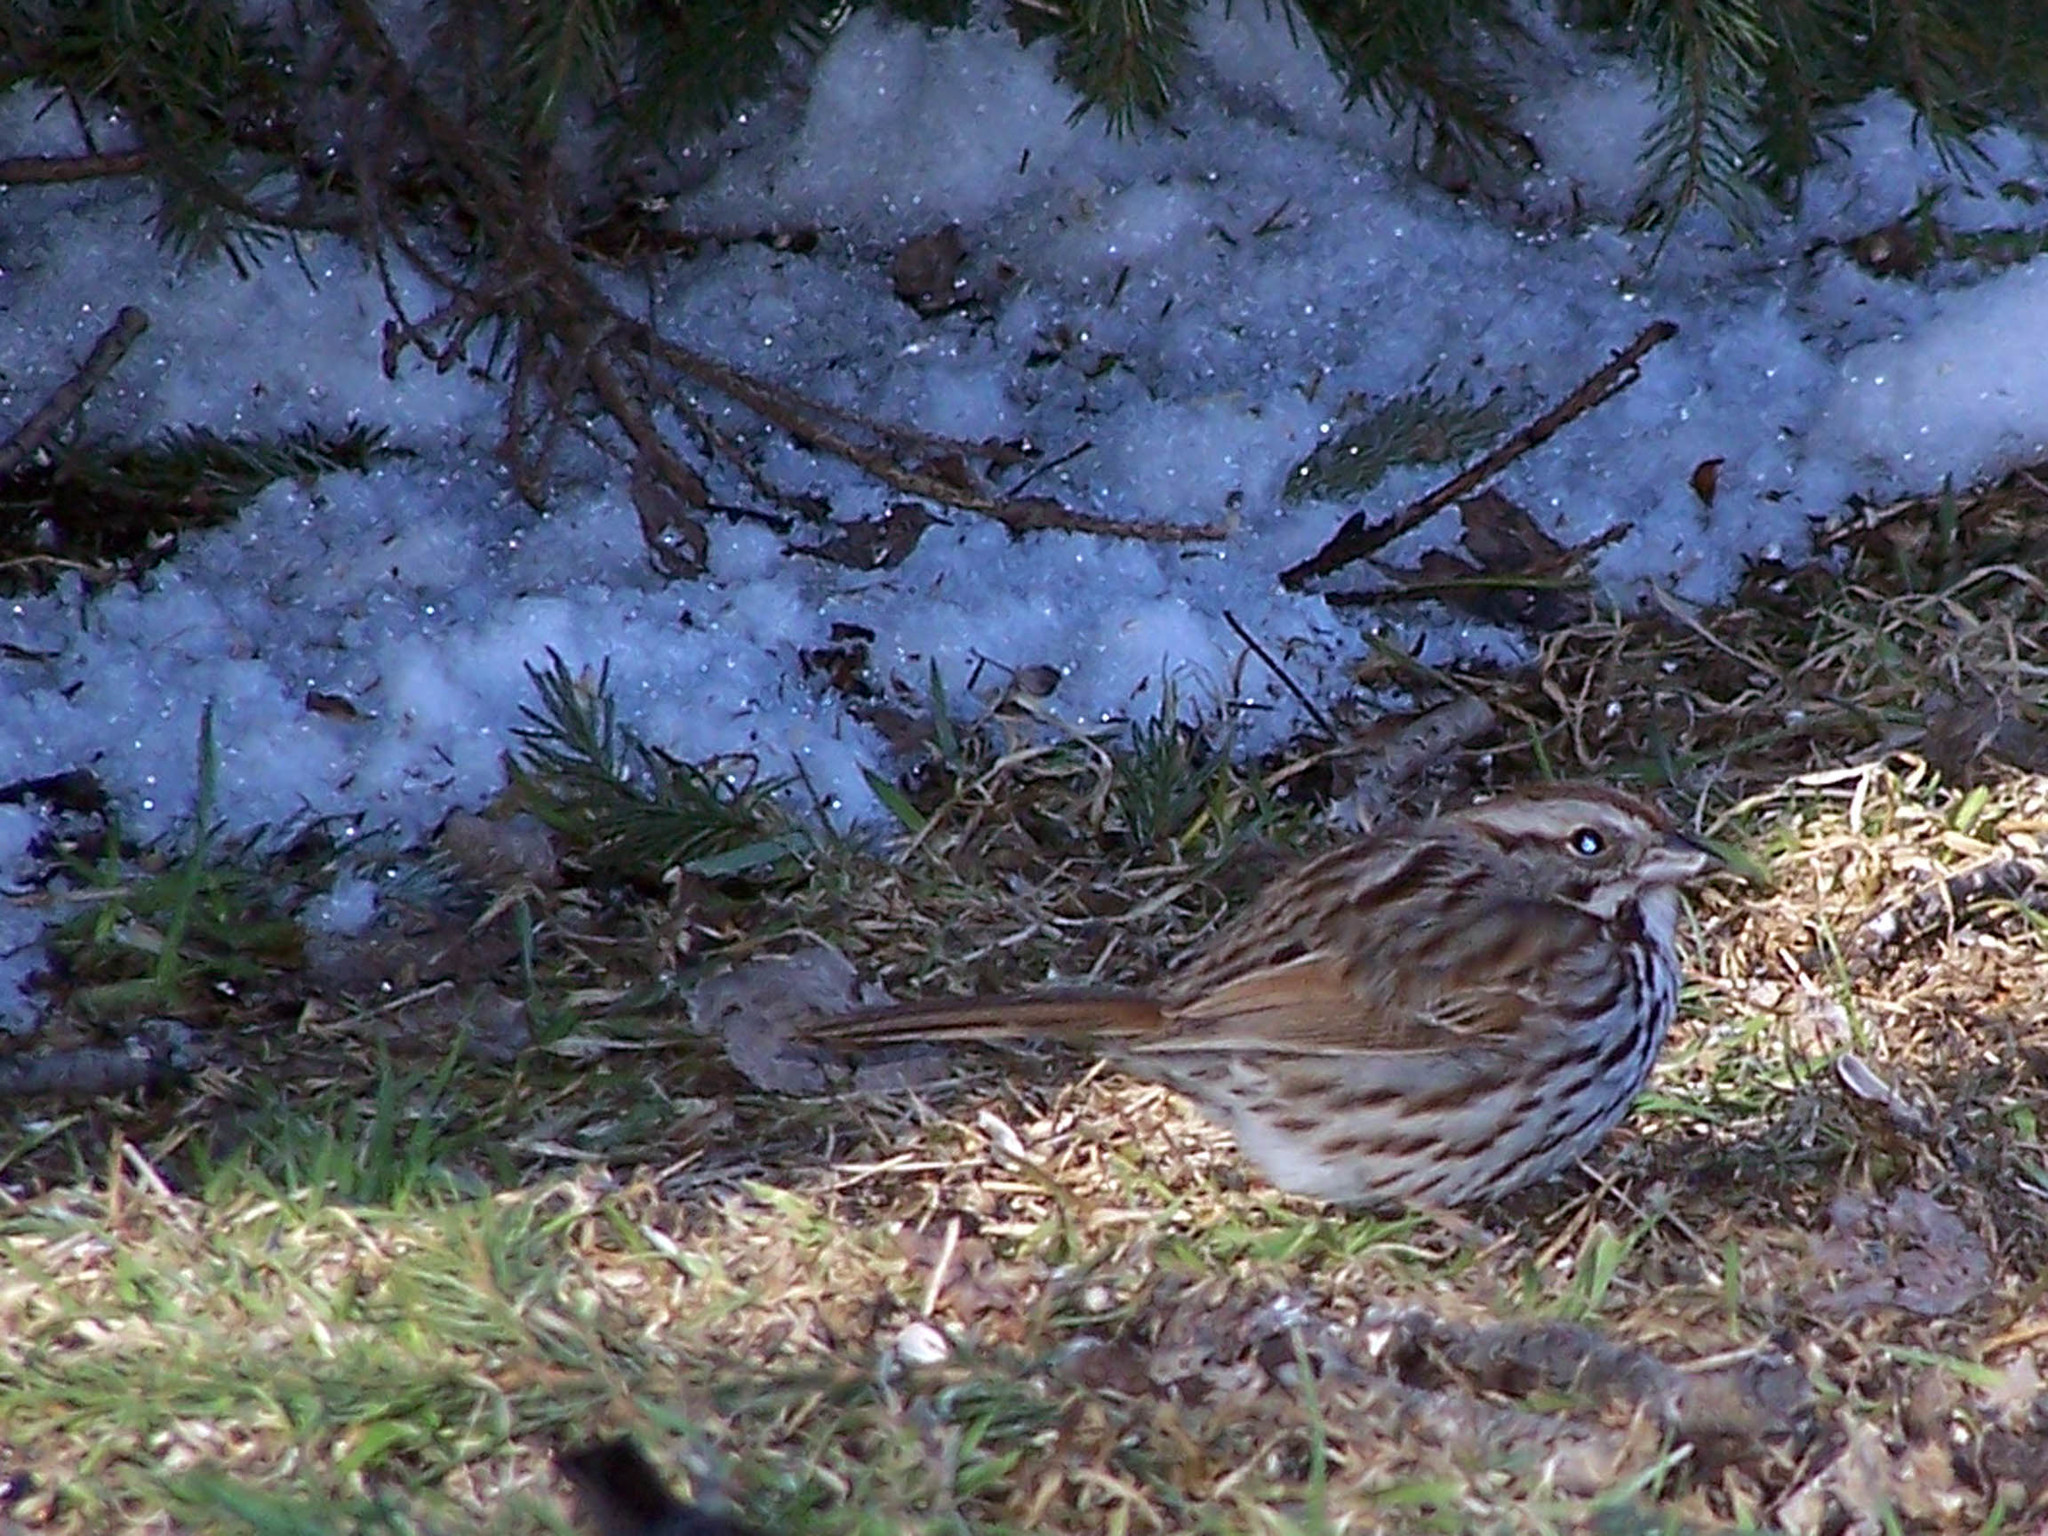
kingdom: Animalia
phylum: Chordata
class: Aves
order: Passeriformes
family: Passerellidae
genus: Melospiza
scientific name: Melospiza melodia
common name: Song sparrow
